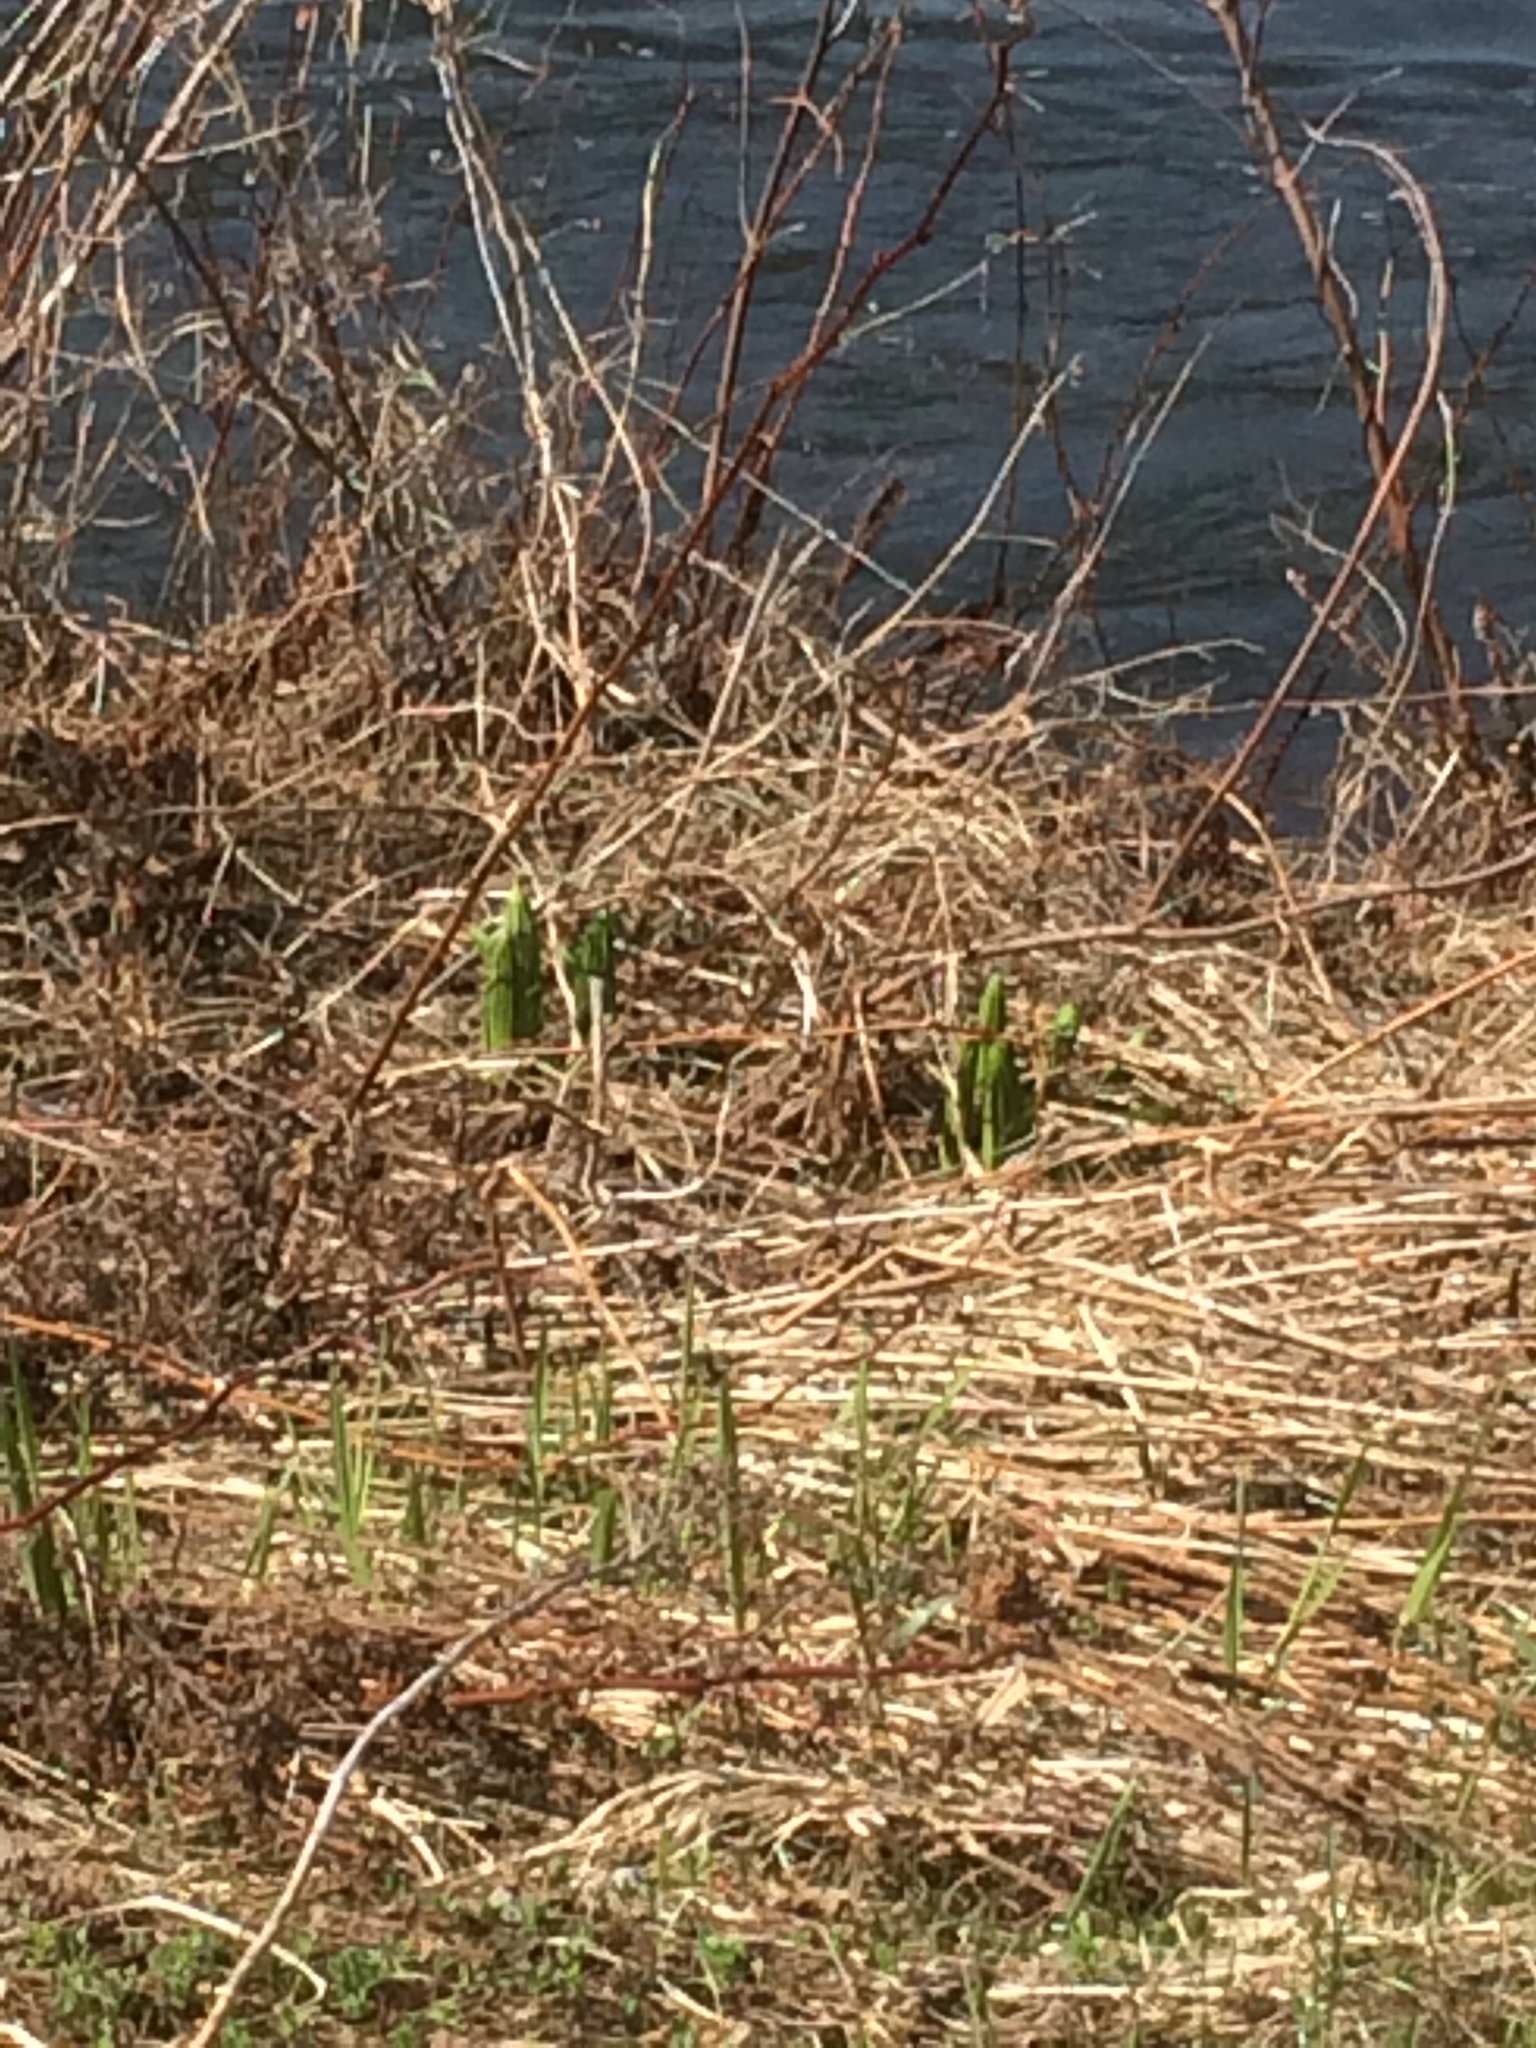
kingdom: Plantae
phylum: Tracheophyta
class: Liliopsida
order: Liliales
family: Melanthiaceae
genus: Veratrum
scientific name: Veratrum viride
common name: American false hellebore
